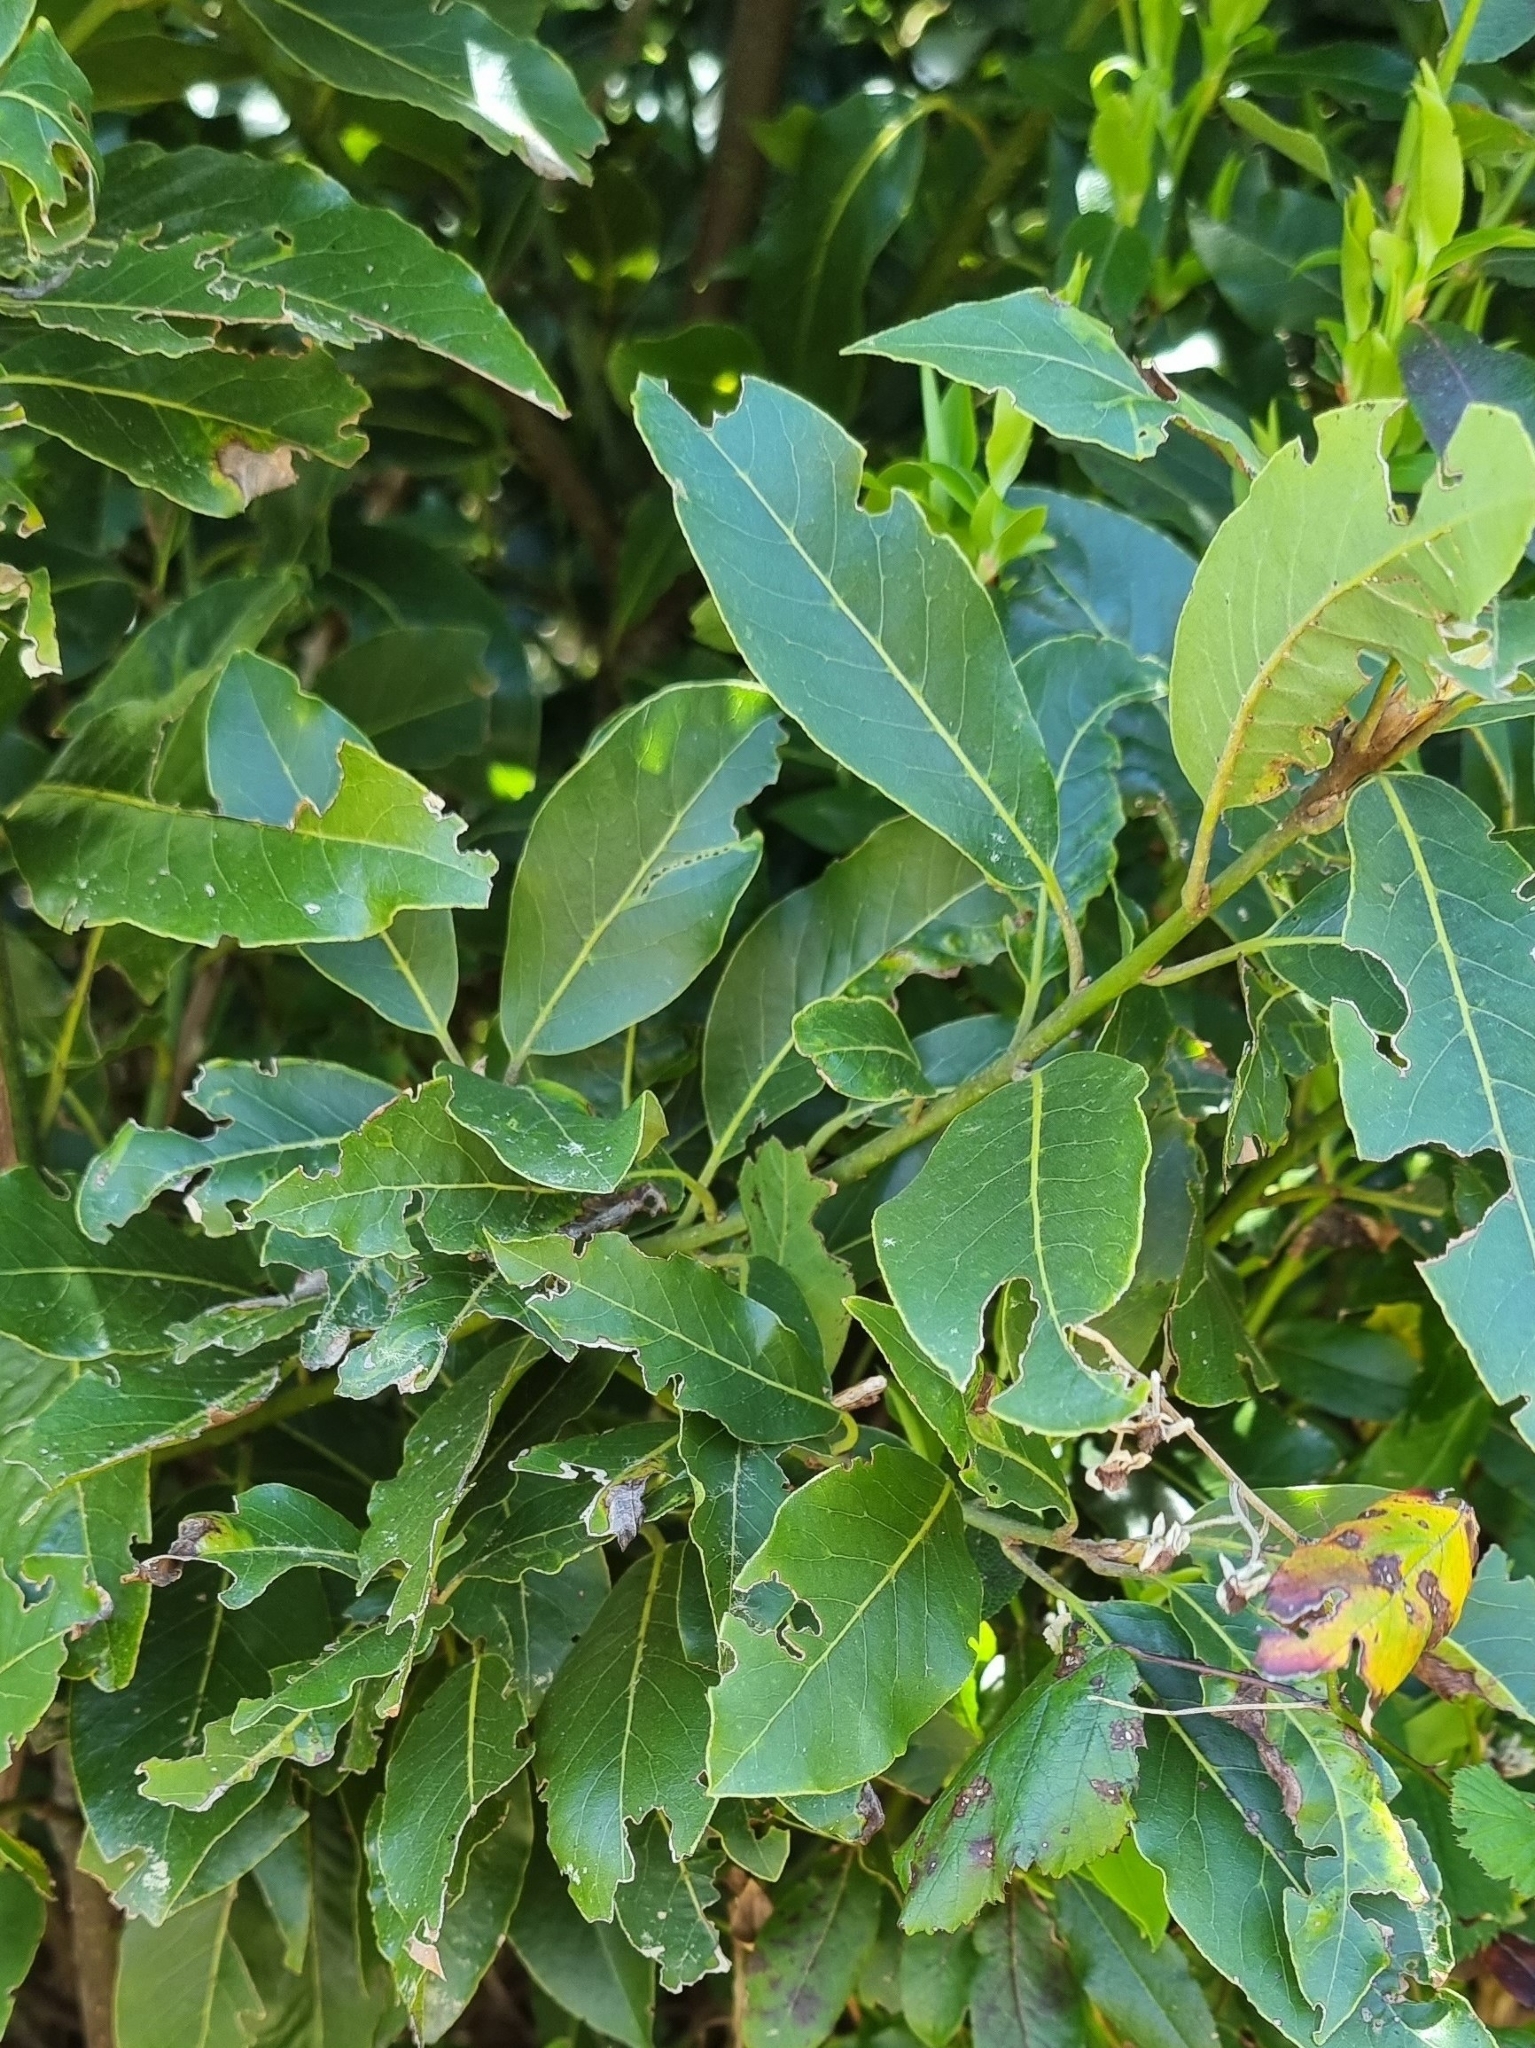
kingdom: Plantae
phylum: Tracheophyta
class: Magnoliopsida
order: Laurales
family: Lauraceae
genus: Laurus
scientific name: Laurus novocanariensis
